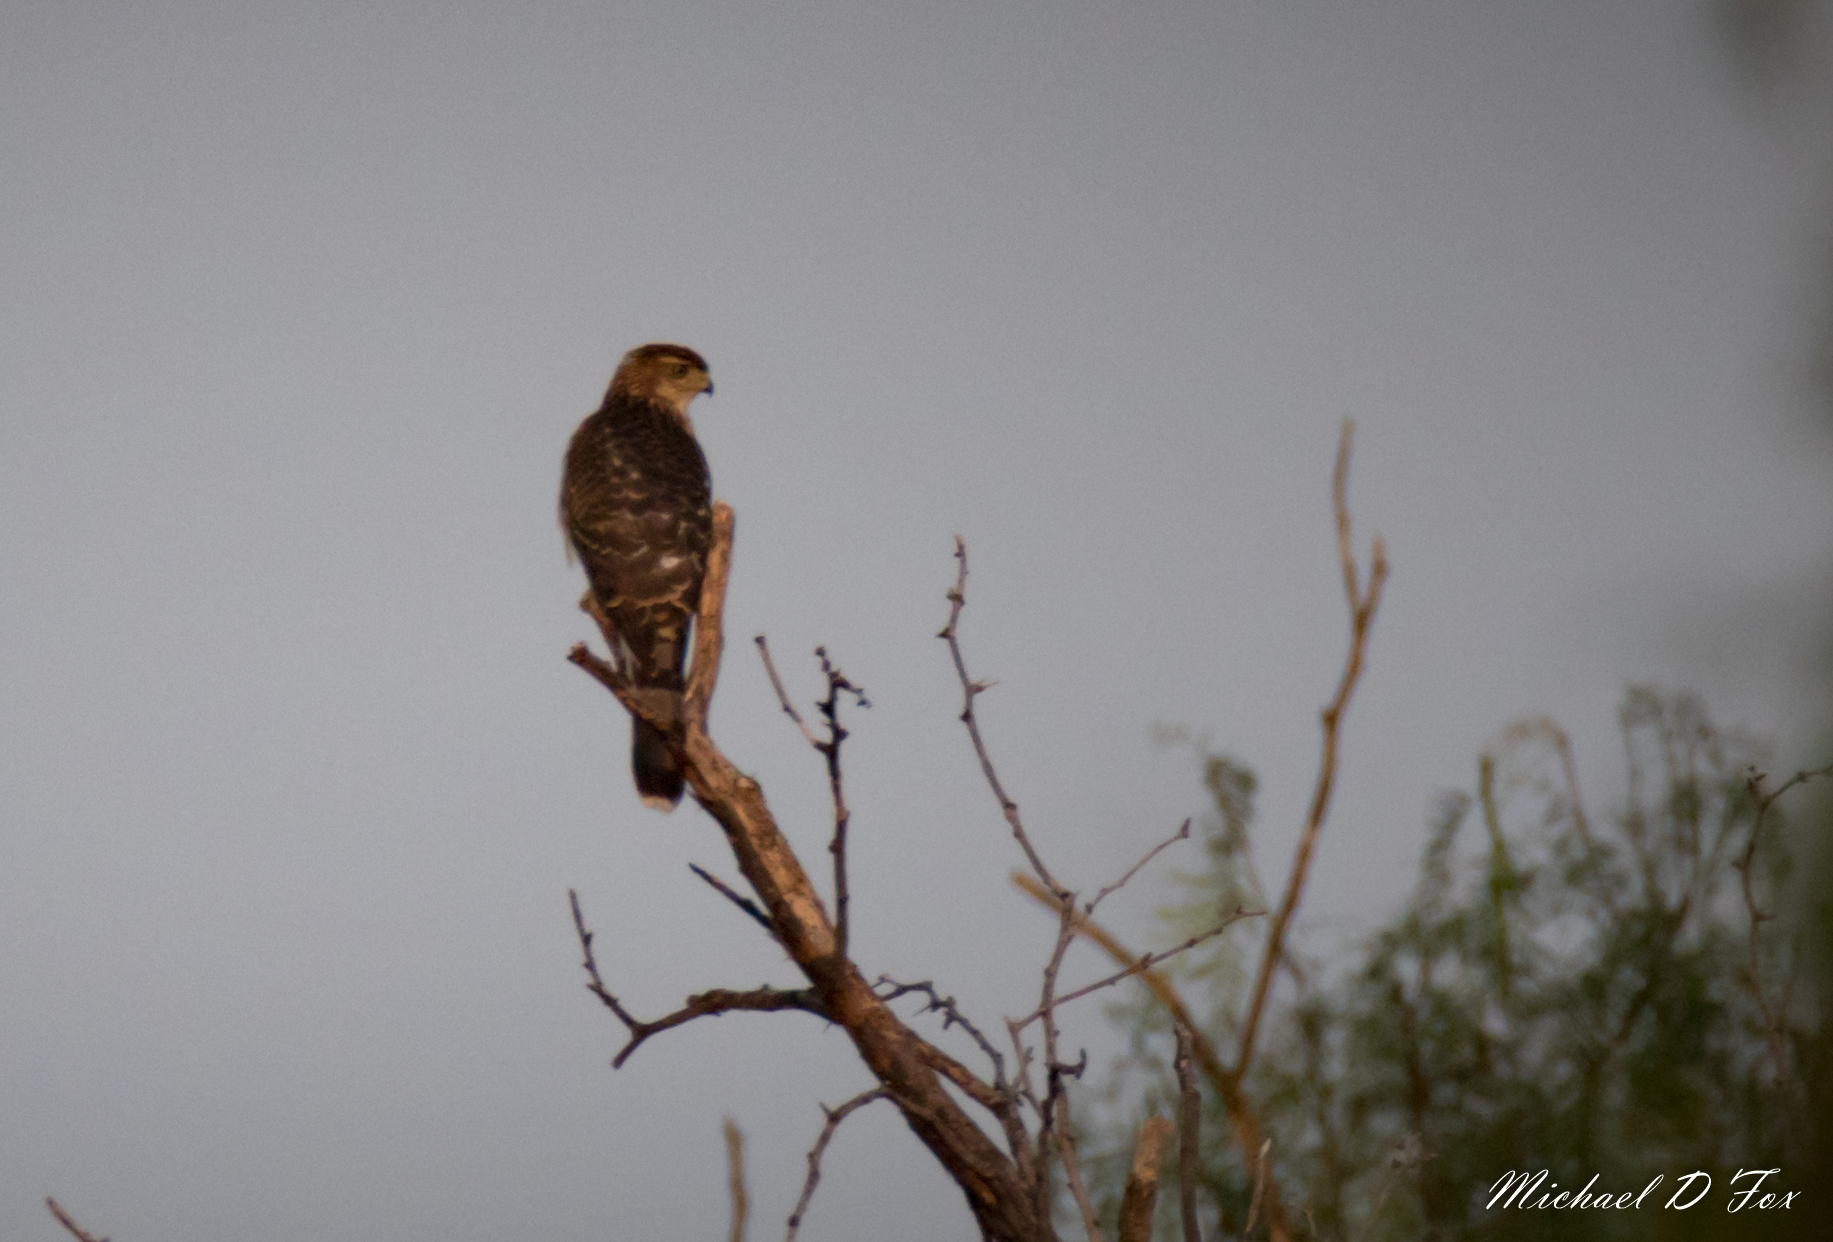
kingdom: Animalia
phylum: Chordata
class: Aves
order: Accipitriformes
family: Accipitridae
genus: Accipiter
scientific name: Accipiter cooperii
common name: Cooper's hawk
